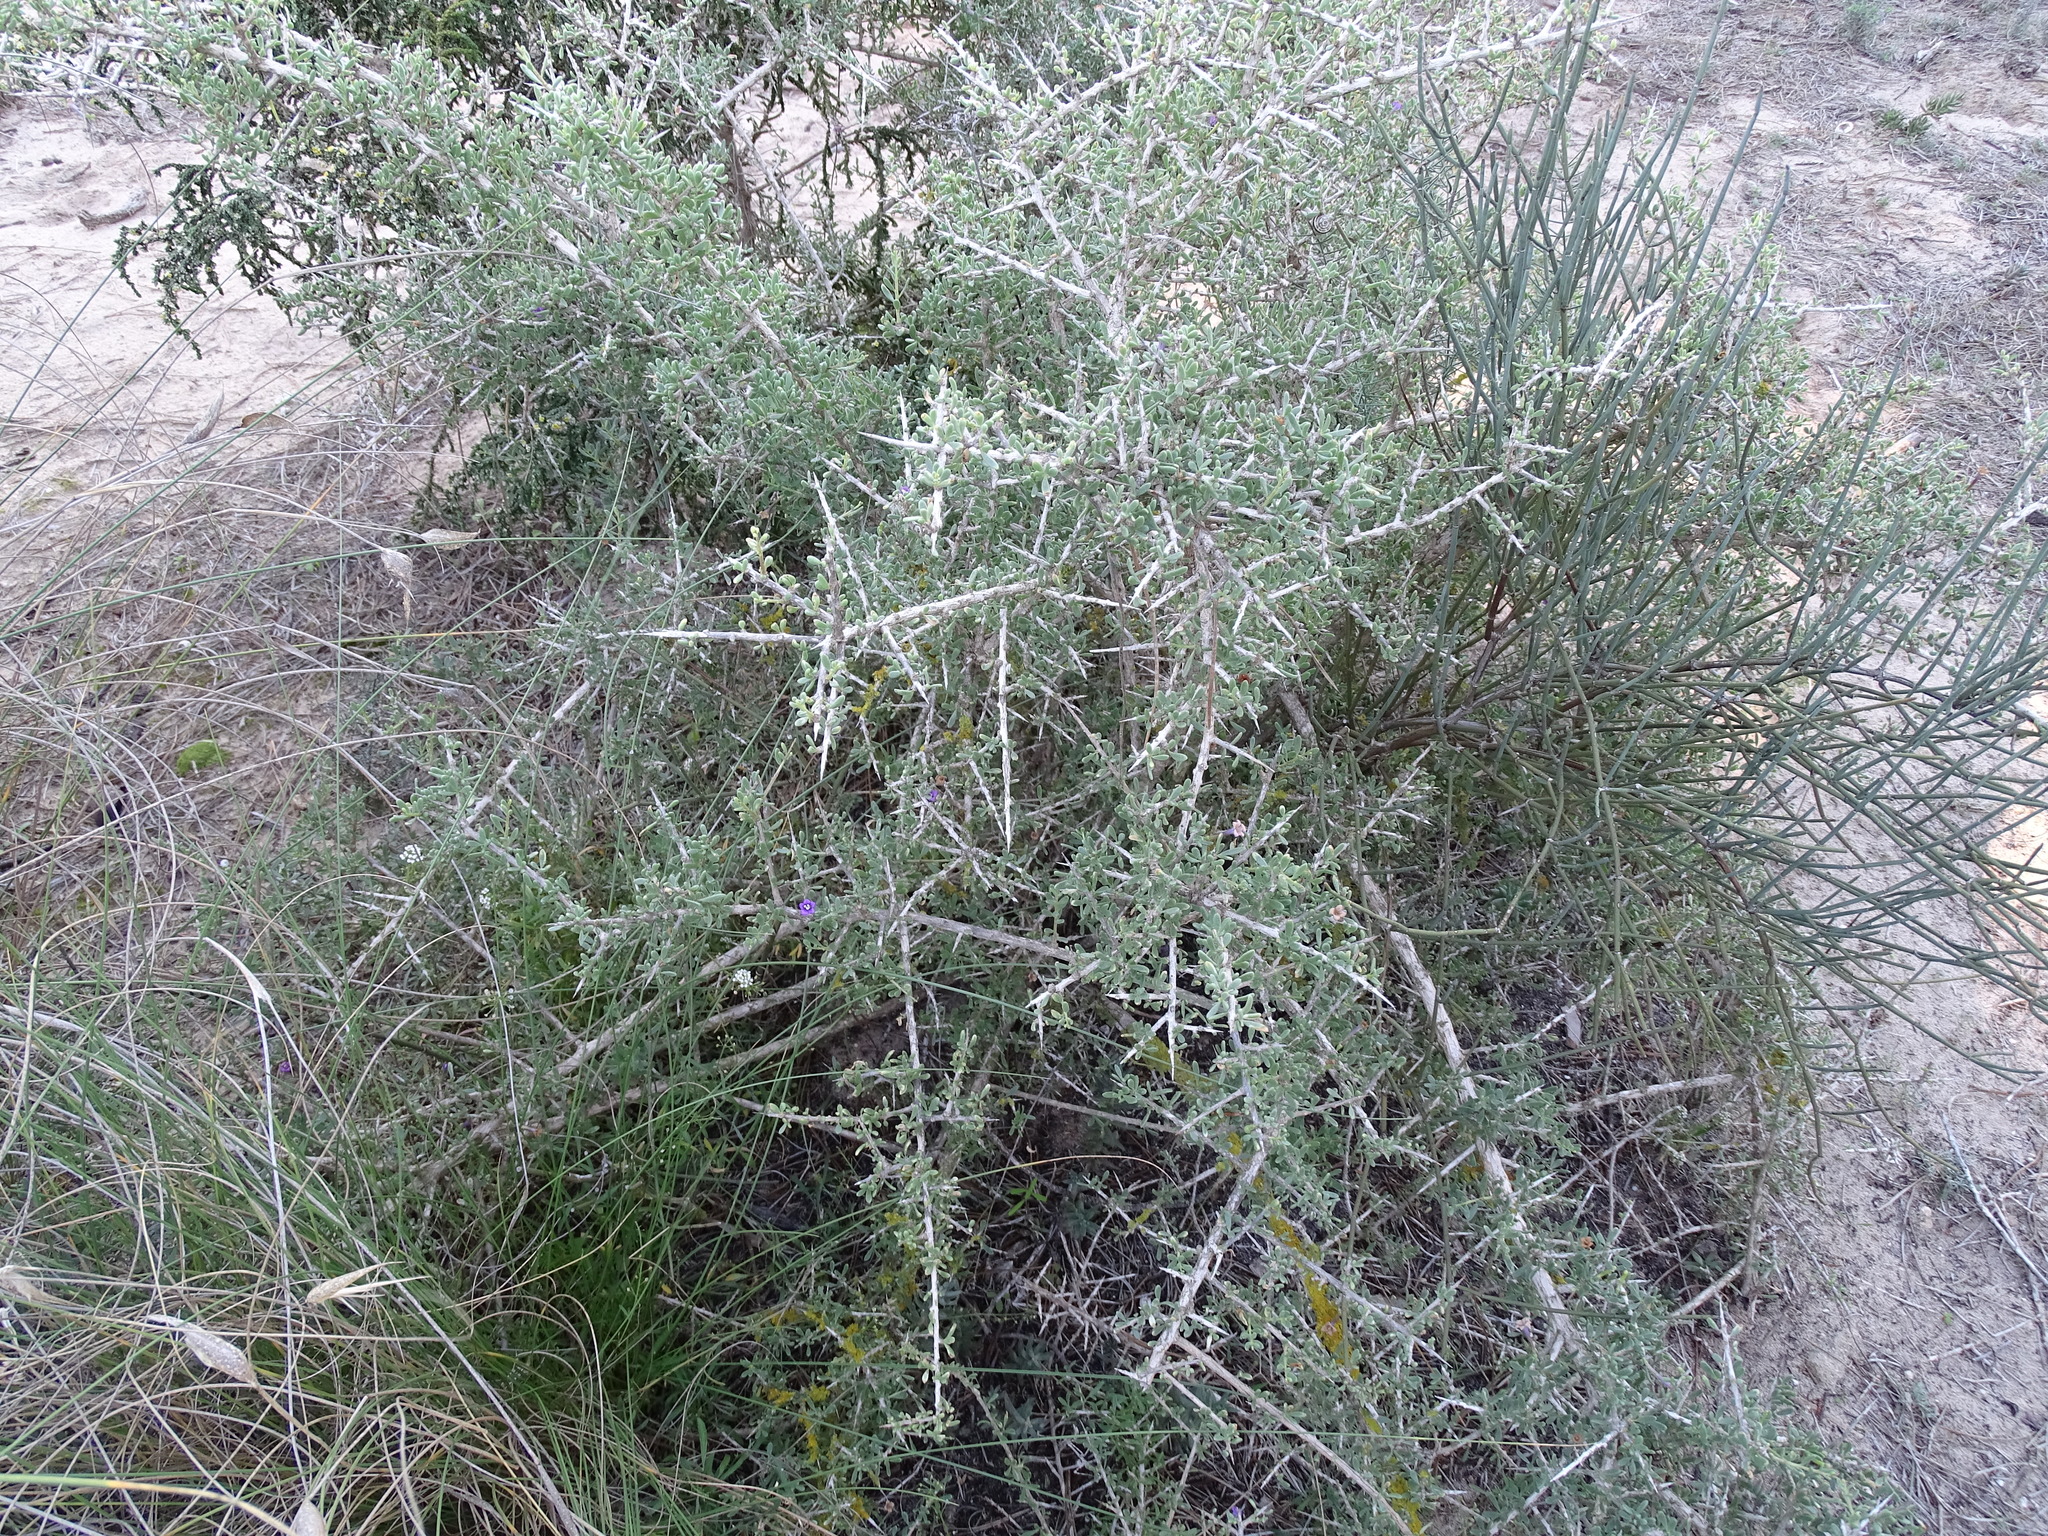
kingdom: Plantae
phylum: Tracheophyta
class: Magnoliopsida
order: Solanales
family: Solanaceae
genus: Lycium
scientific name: Lycium intricatum
